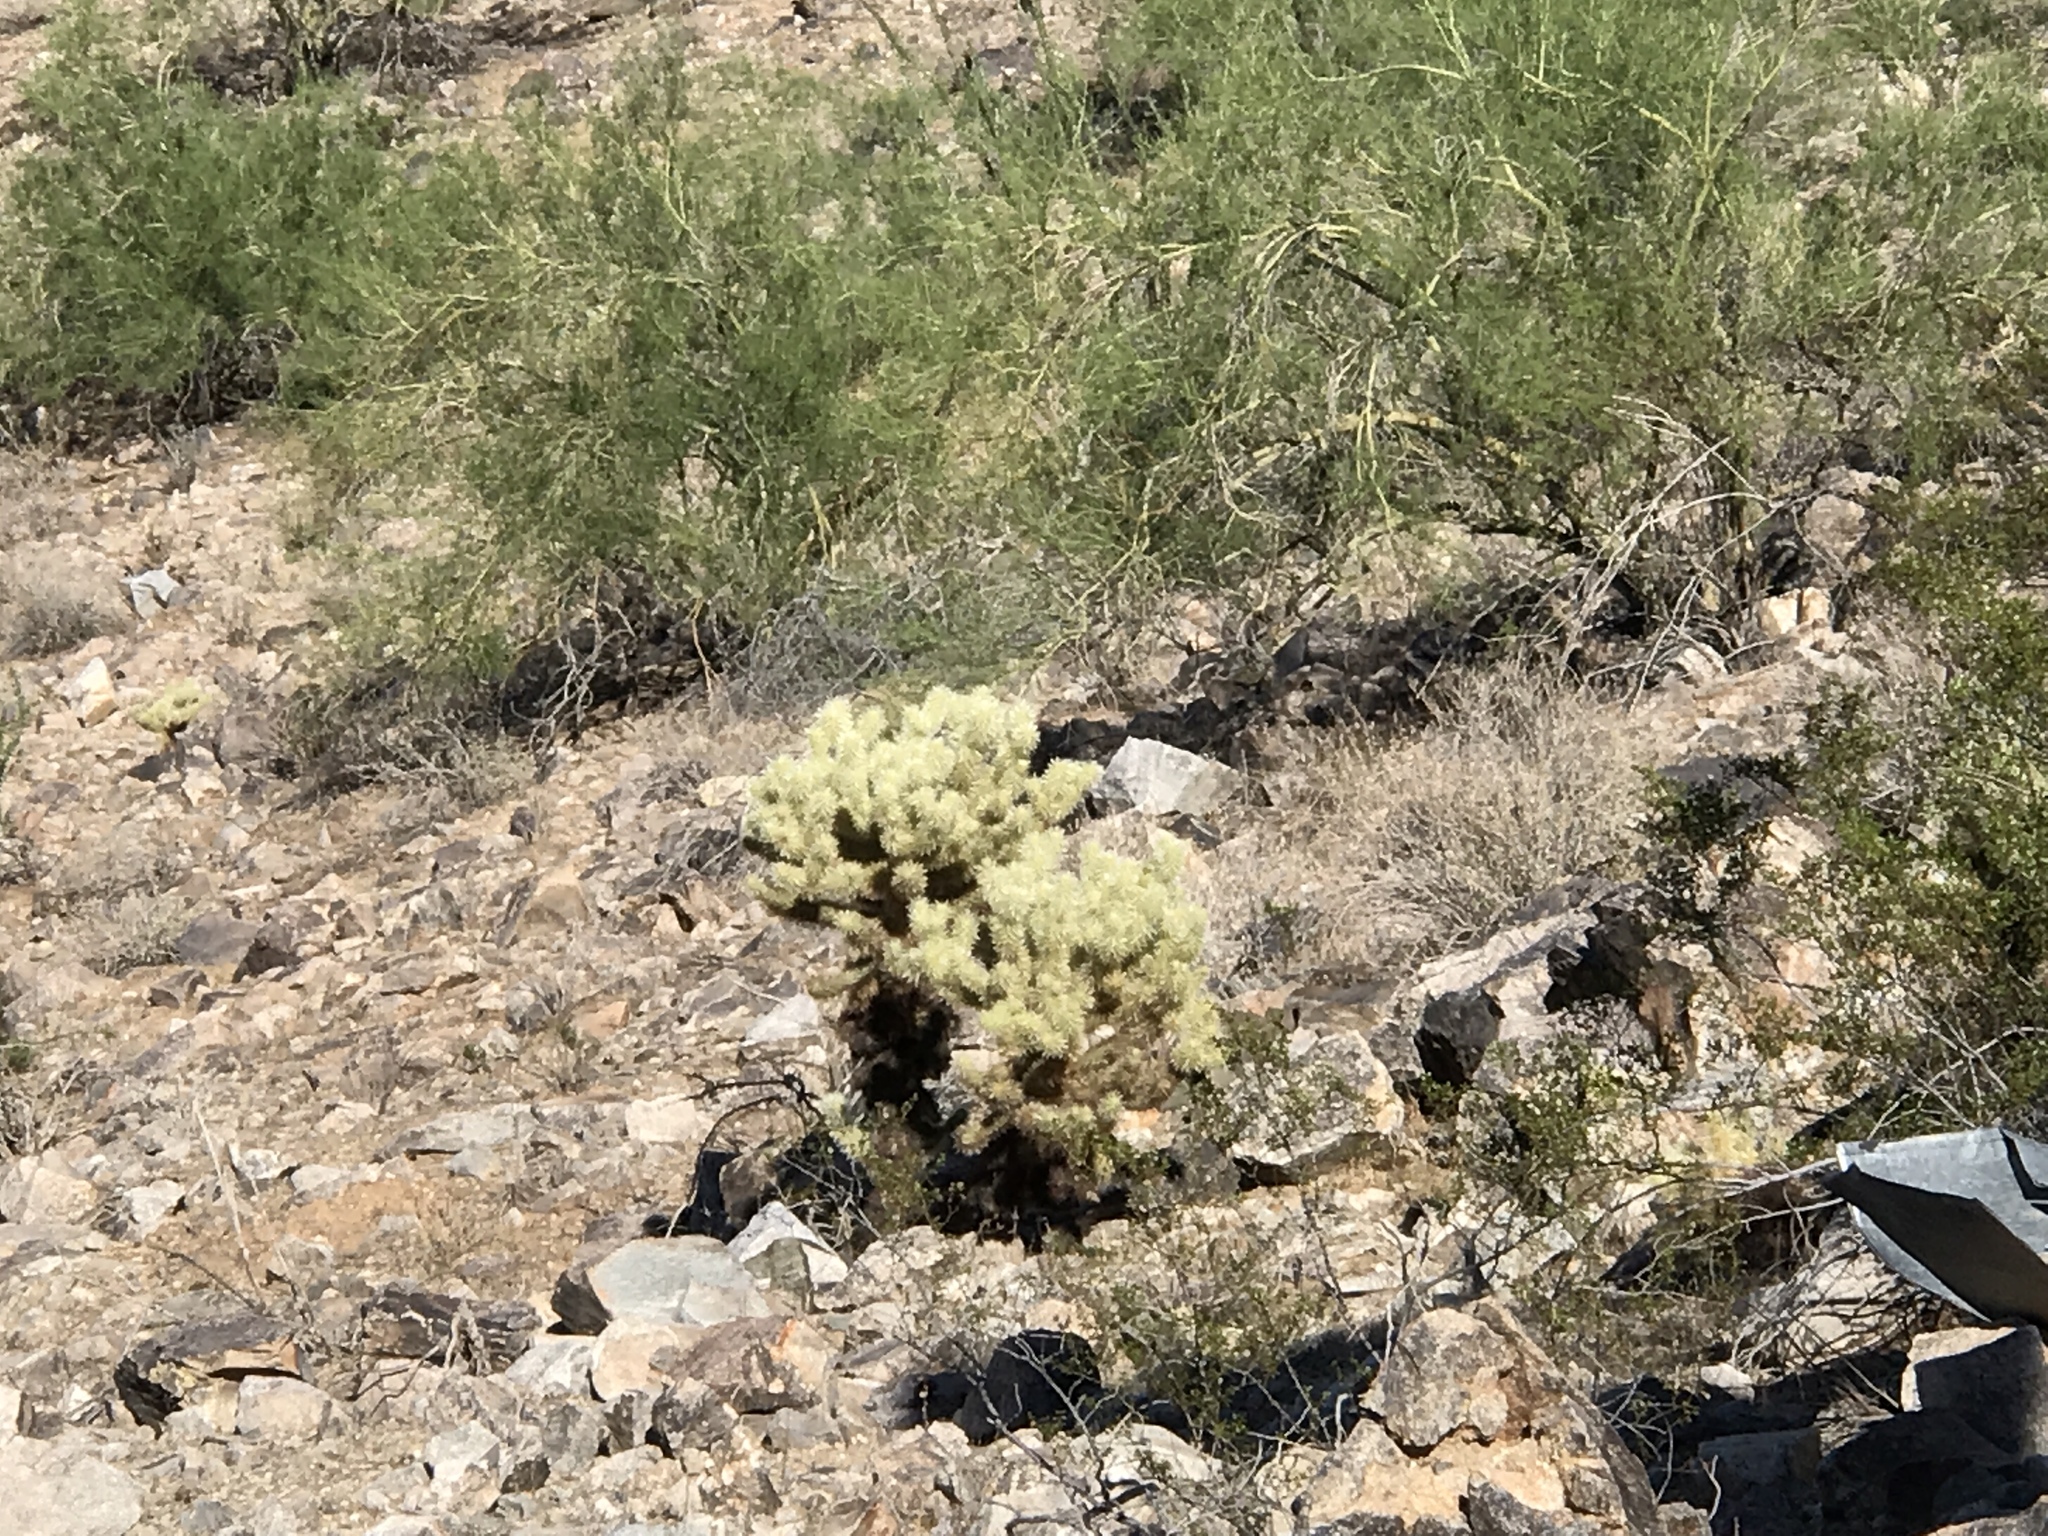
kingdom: Plantae
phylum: Tracheophyta
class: Magnoliopsida
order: Caryophyllales
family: Cactaceae
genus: Cylindropuntia
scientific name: Cylindropuntia fosbergii
